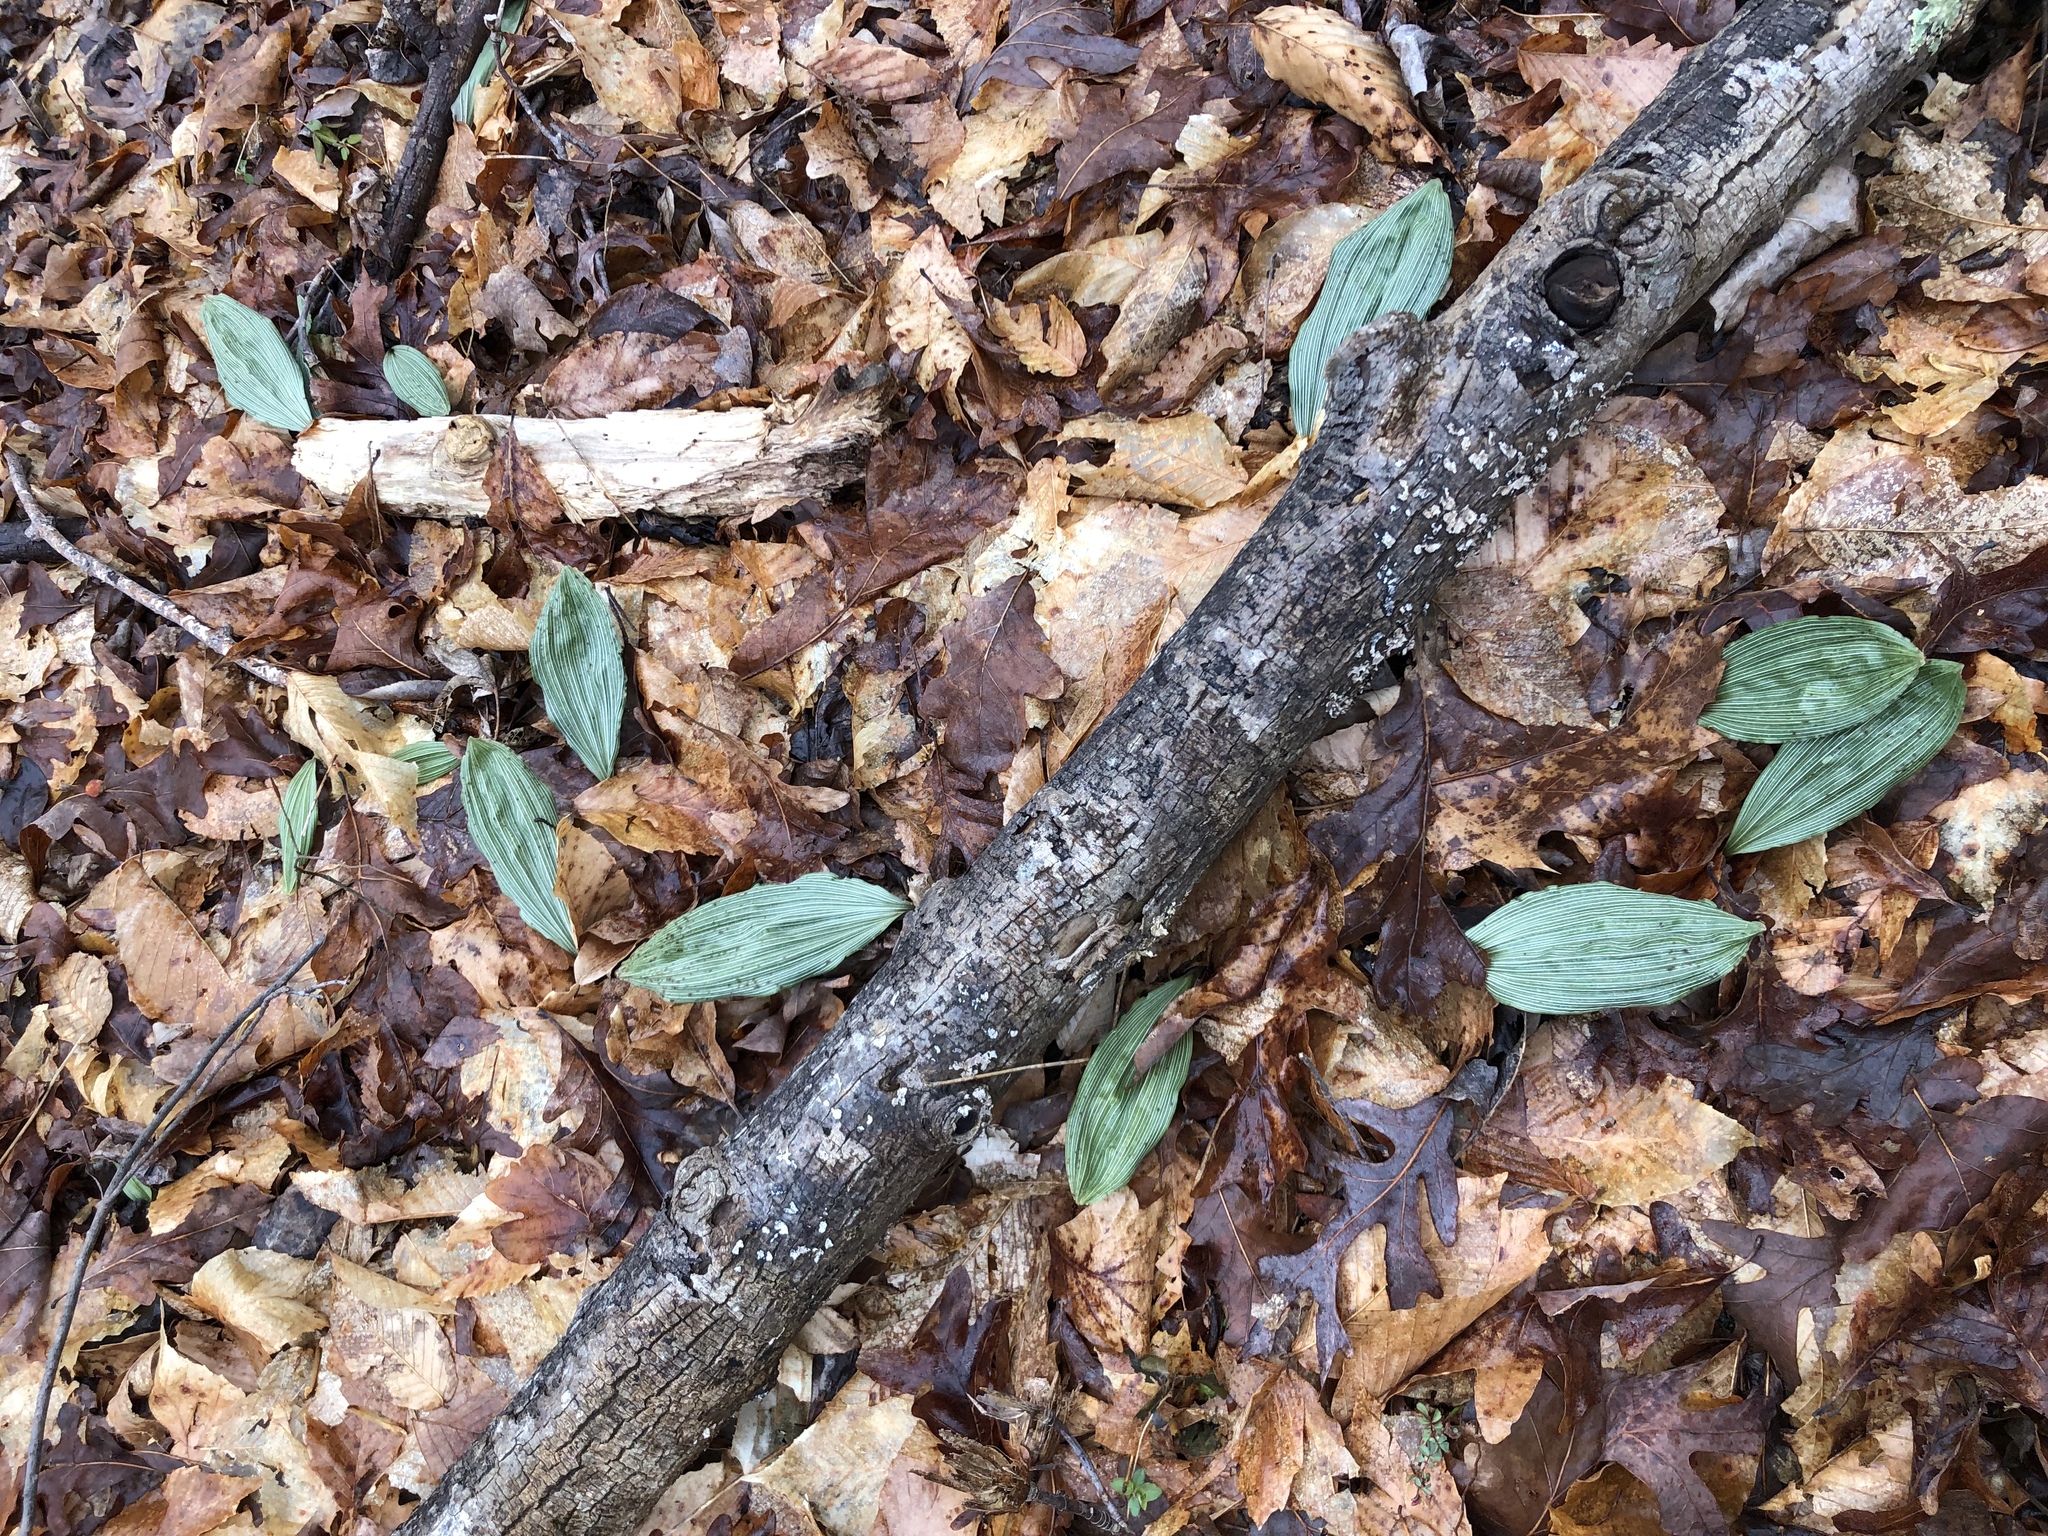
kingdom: Plantae
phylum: Tracheophyta
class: Liliopsida
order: Asparagales
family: Orchidaceae
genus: Aplectrum
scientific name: Aplectrum hyemale
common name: Adam-and-eve
